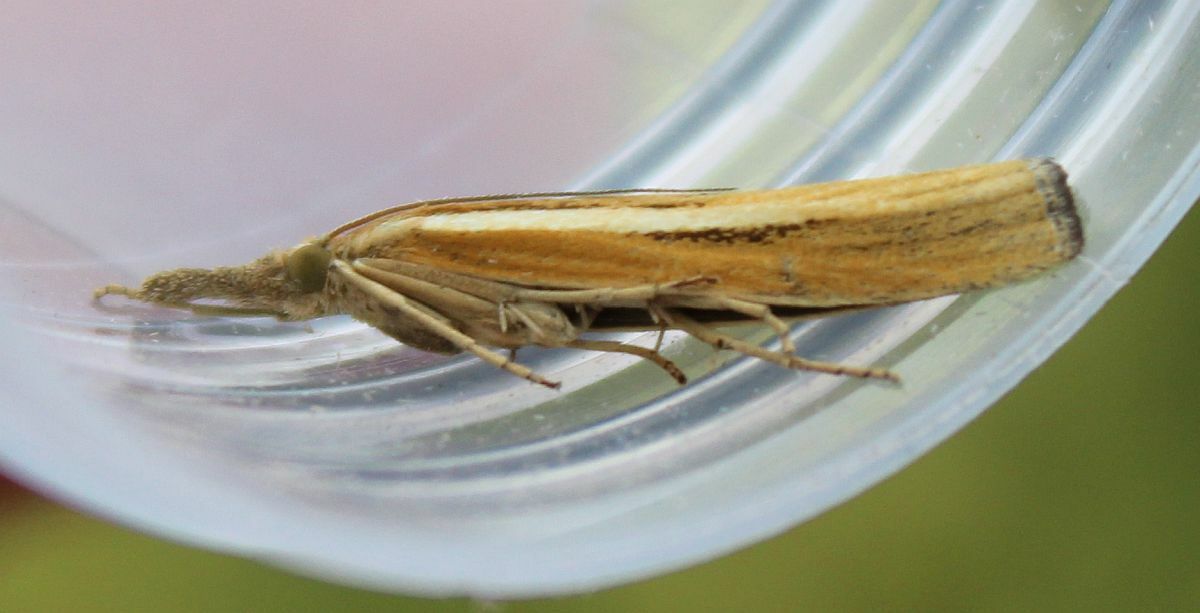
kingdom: Animalia
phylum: Arthropoda
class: Insecta
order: Lepidoptera
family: Crambidae
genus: Agriphila
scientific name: Agriphila tristellus
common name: Common grass-veneer
